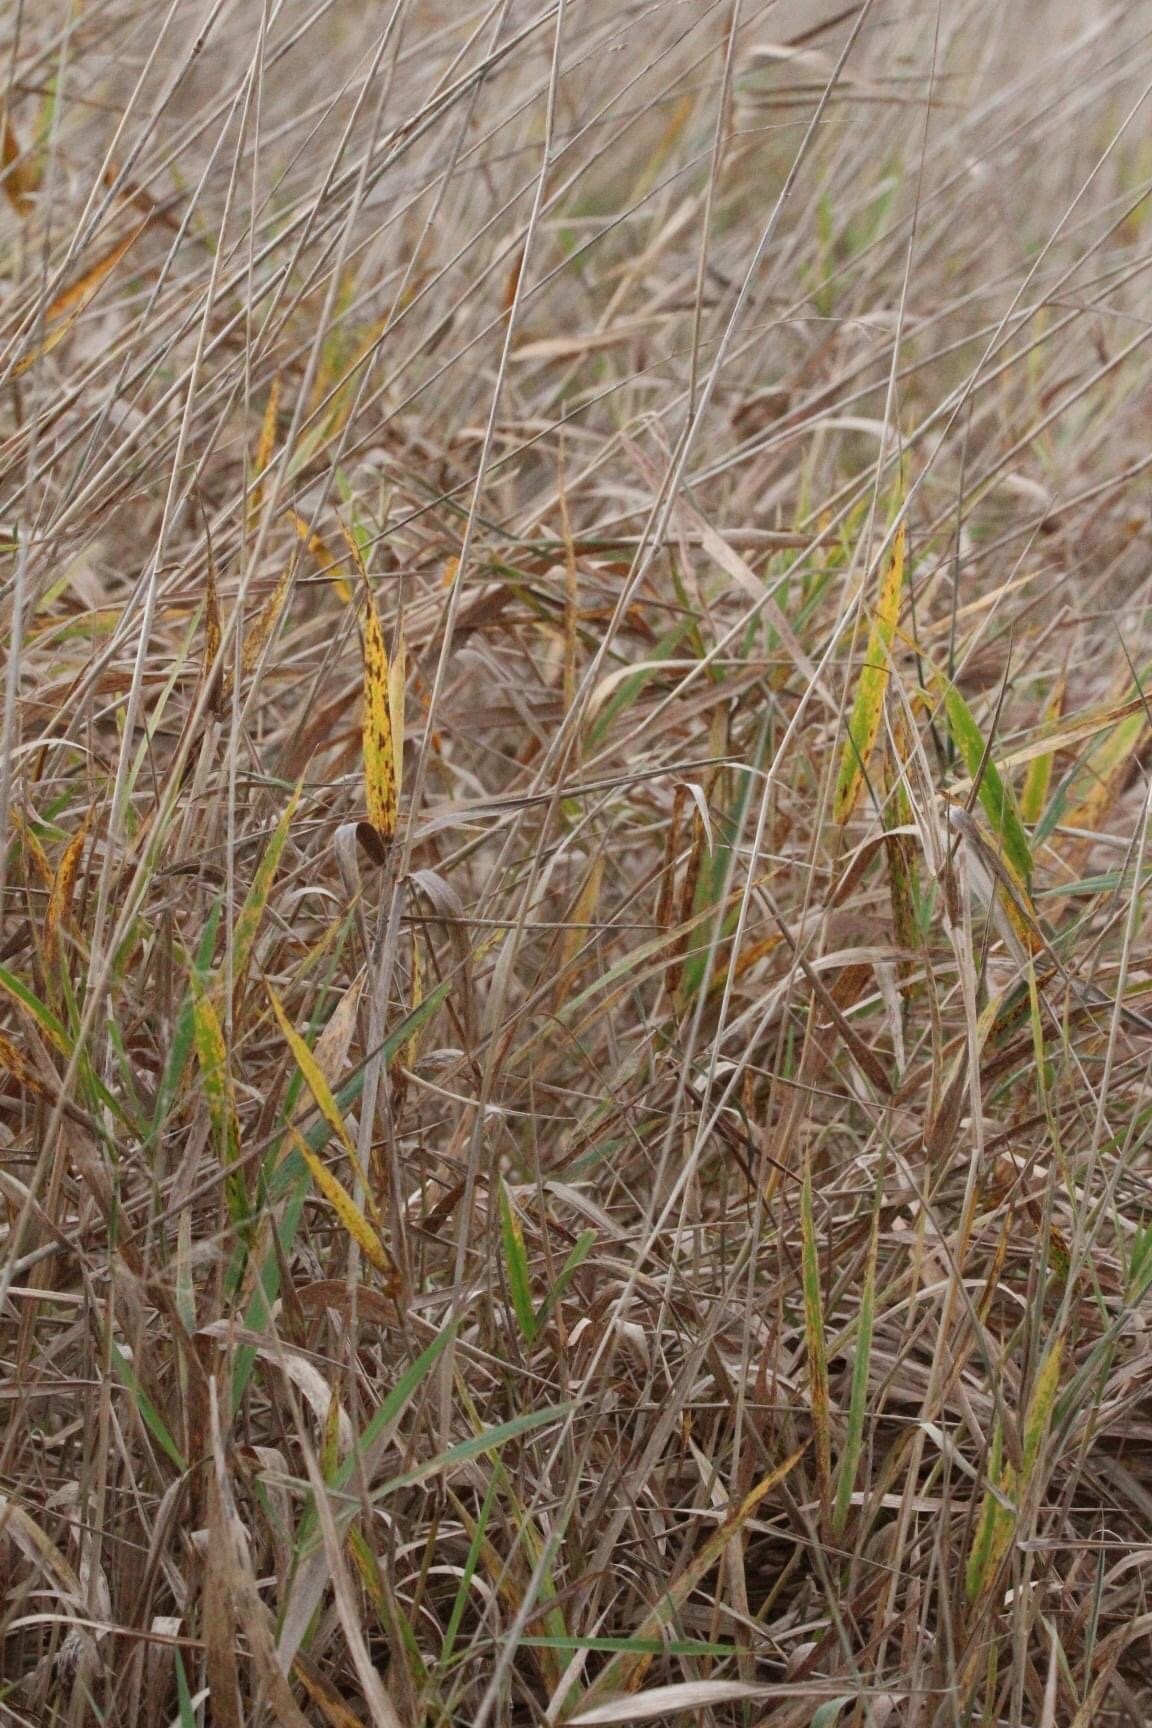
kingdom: Plantae
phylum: Tracheophyta
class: Liliopsida
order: Poales
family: Poaceae
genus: Bromus
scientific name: Bromus inermis
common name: Smooth brome
